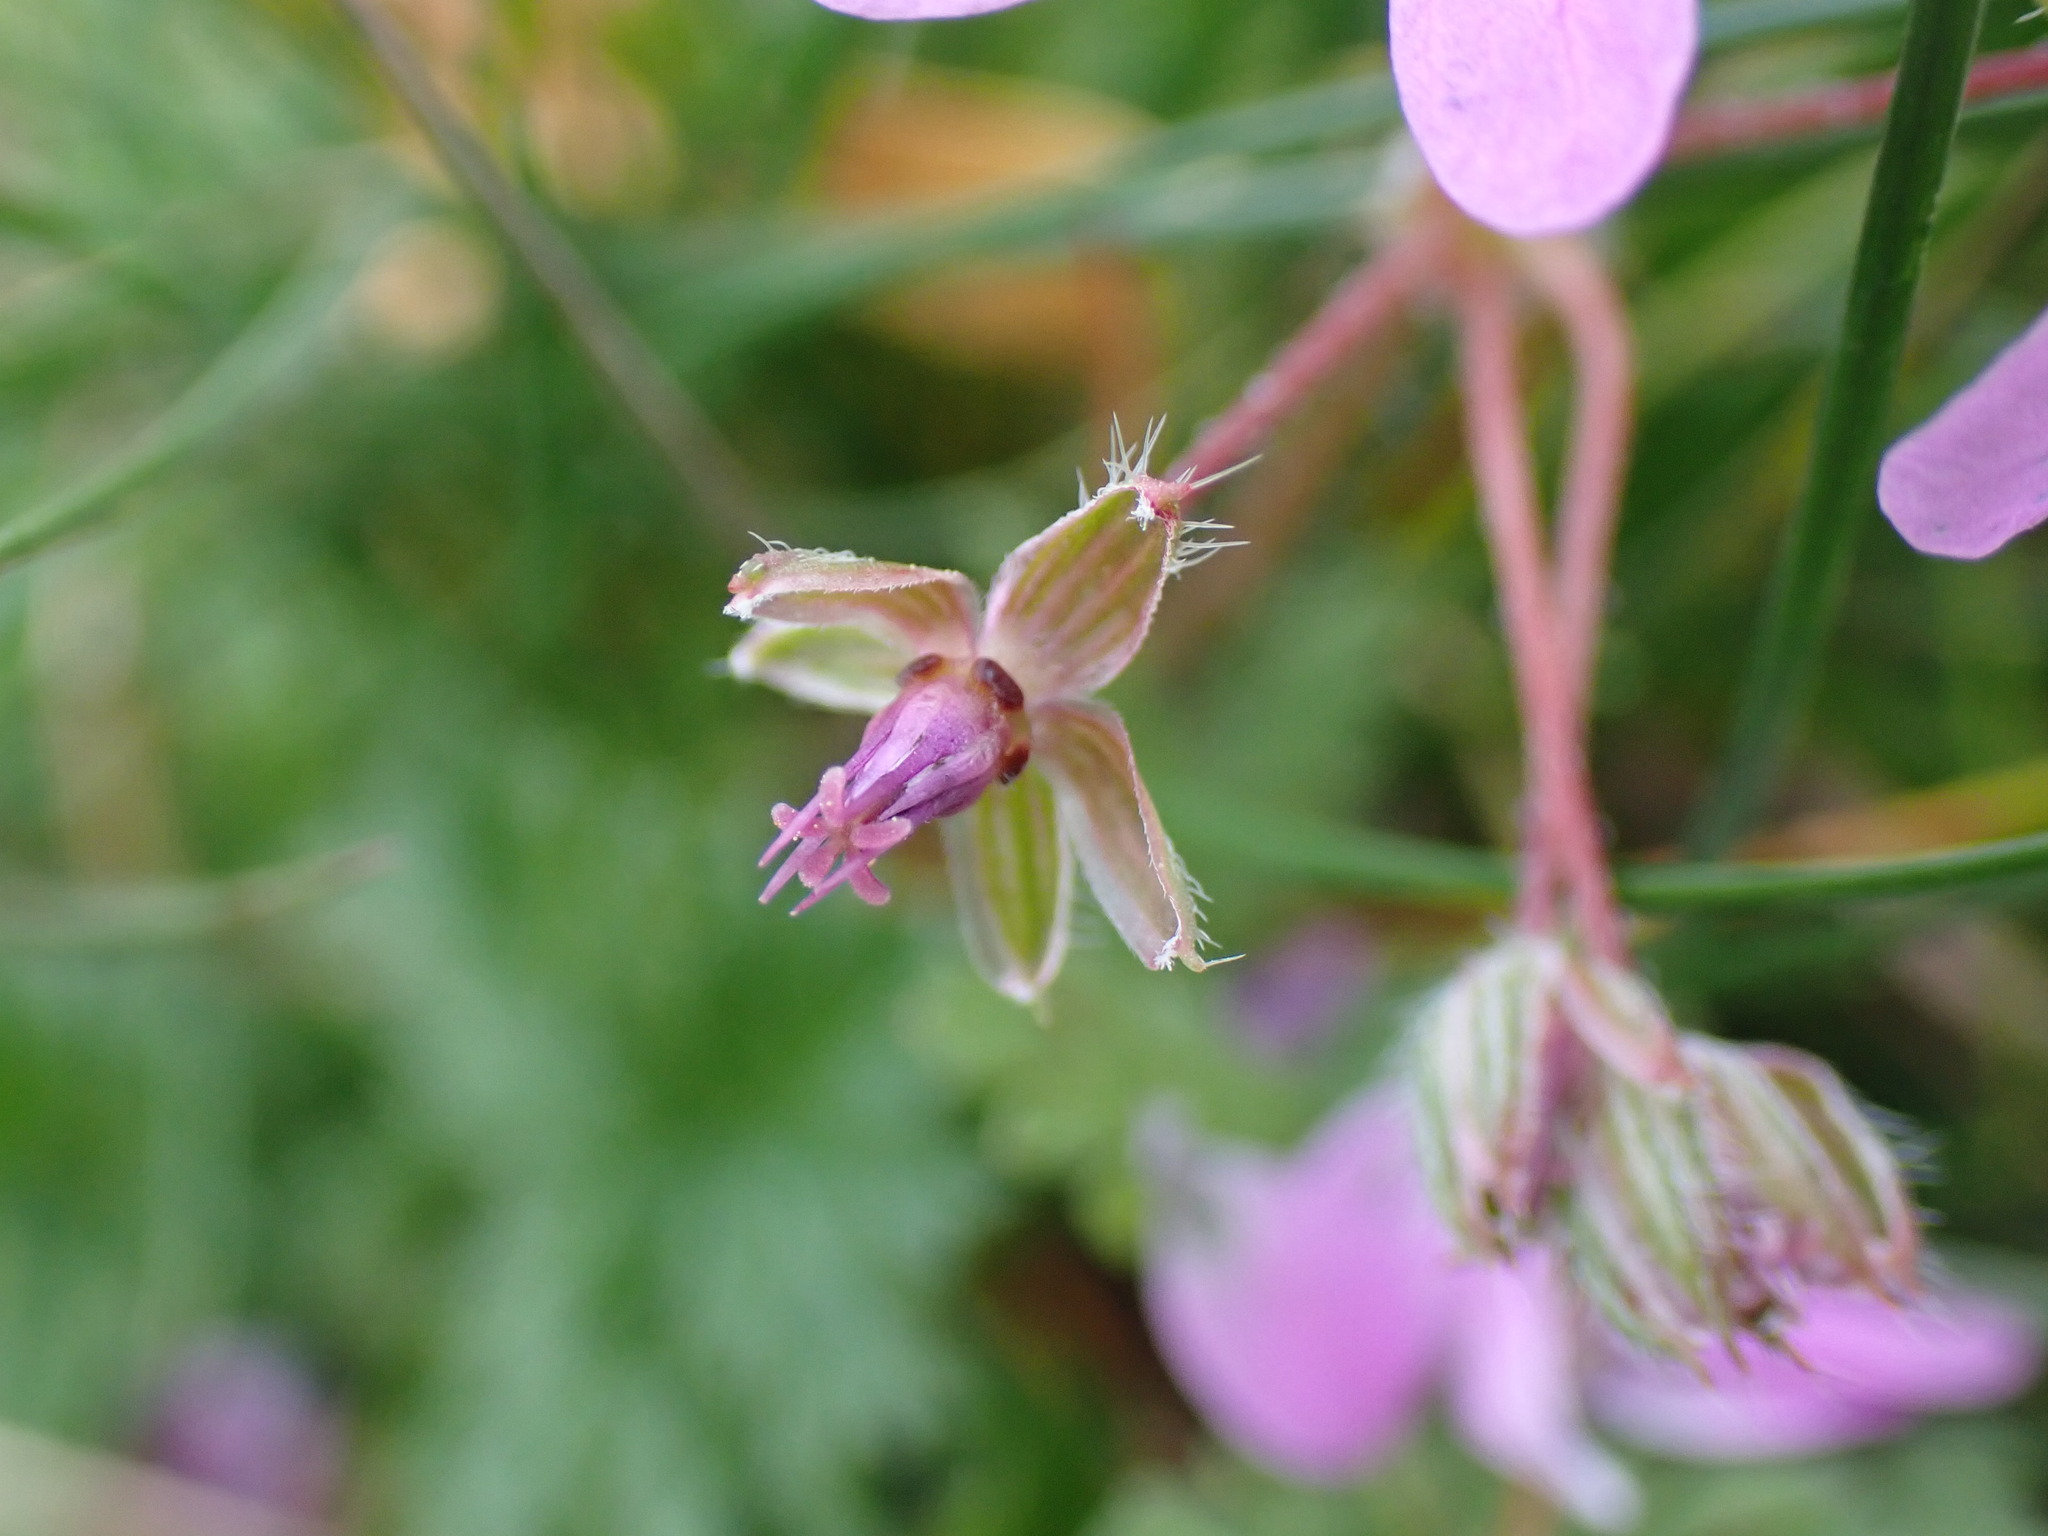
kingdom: Plantae
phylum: Tracheophyta
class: Magnoliopsida
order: Geraniales
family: Geraniaceae
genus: Erodium
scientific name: Erodium cicutarium
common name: Common stork's-bill
